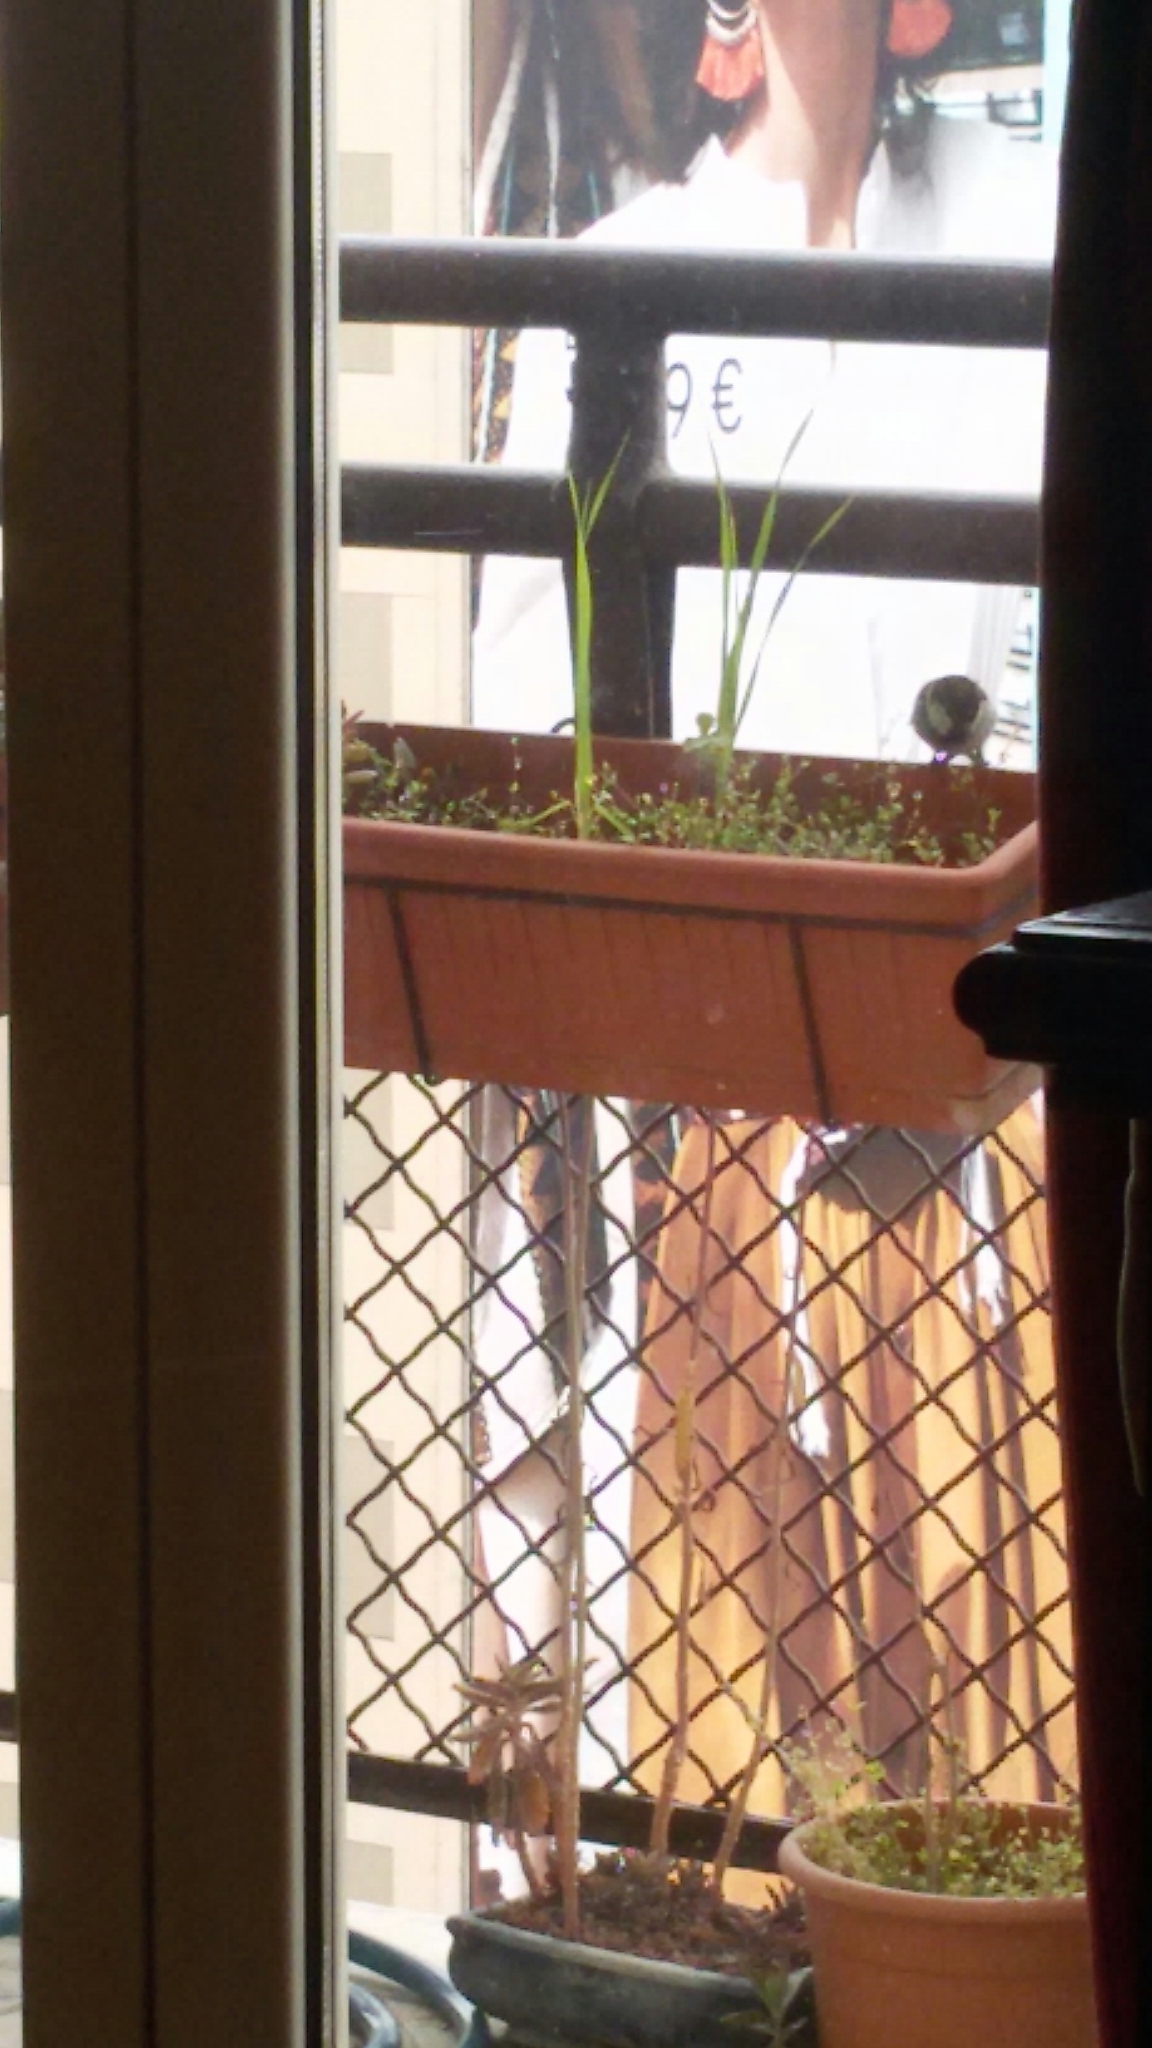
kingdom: Animalia
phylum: Chordata
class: Aves
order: Passeriformes
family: Passeridae
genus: Passer
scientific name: Passer italiae
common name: Italian sparrow
